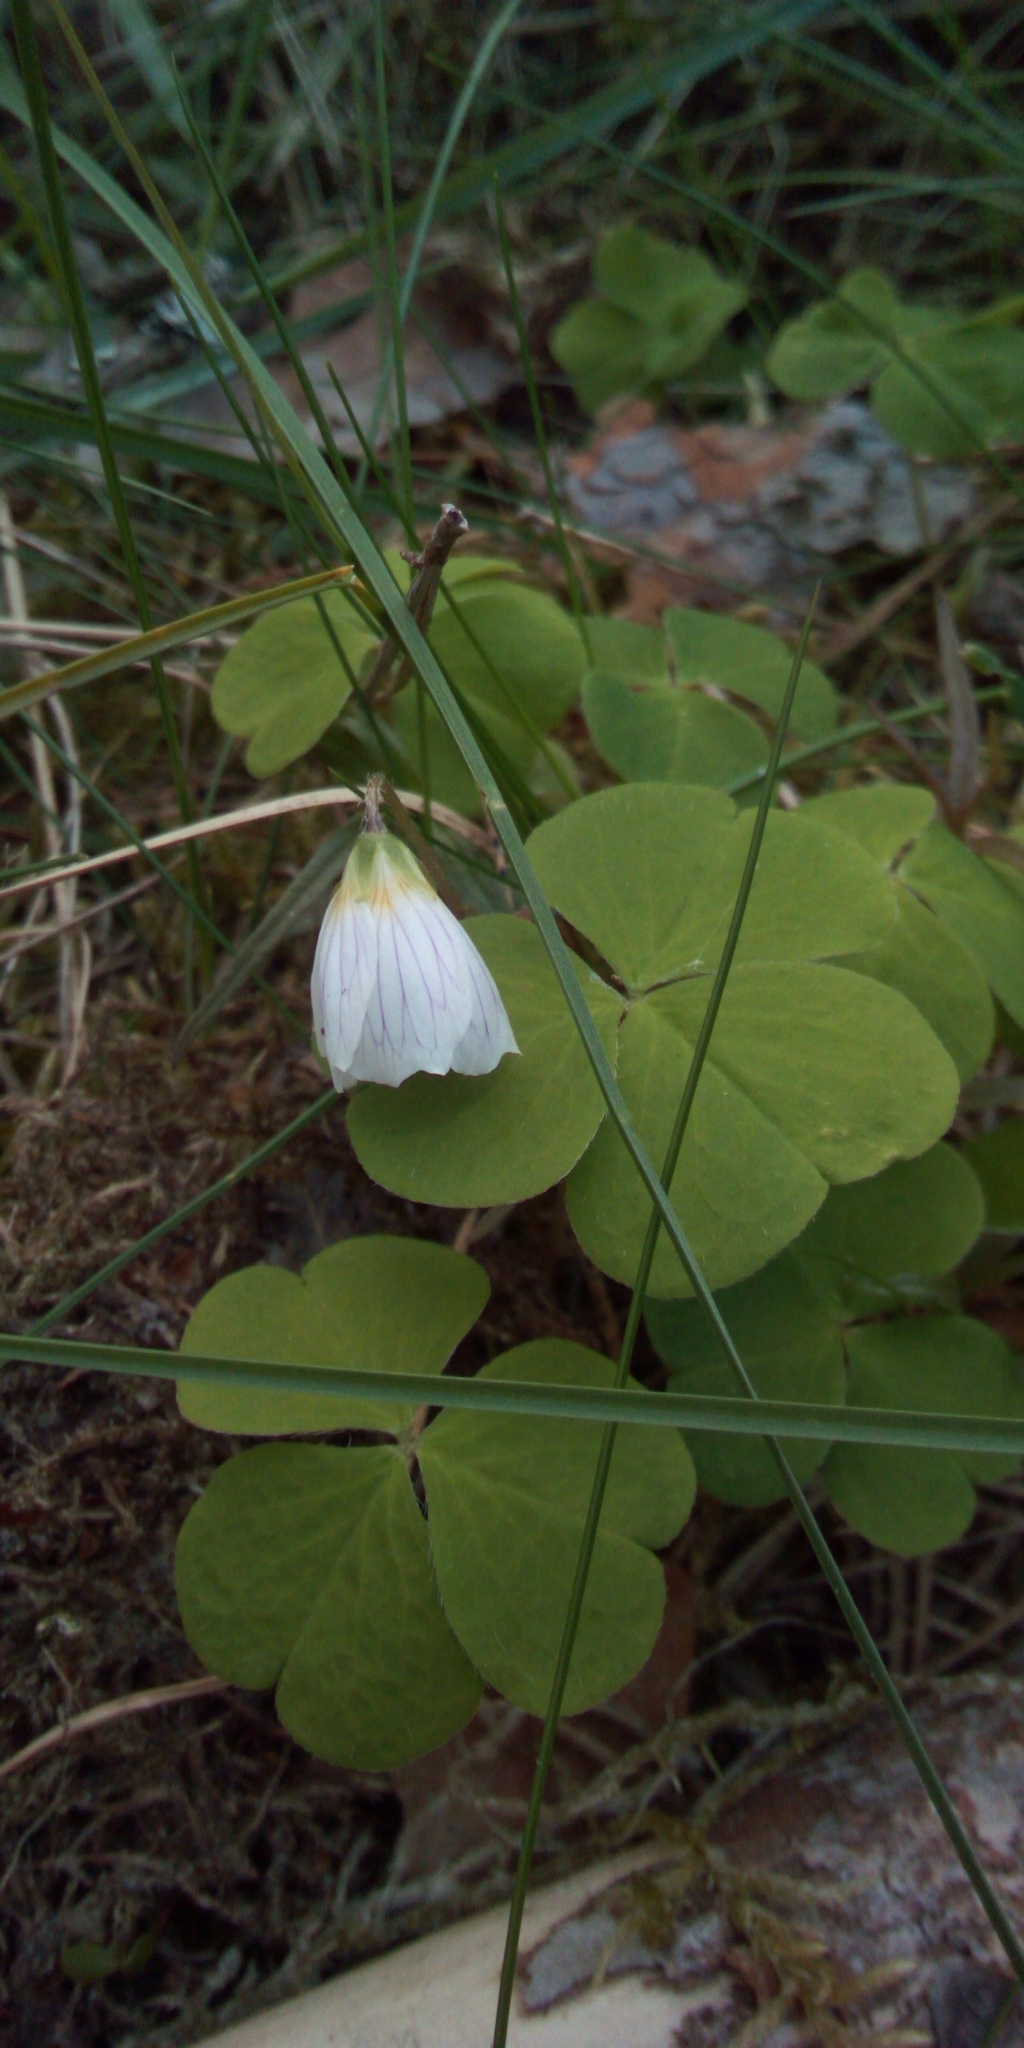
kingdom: Plantae
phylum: Tracheophyta
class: Magnoliopsida
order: Oxalidales
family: Oxalidaceae
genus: Oxalis
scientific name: Oxalis acetosella
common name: Wood-sorrel
